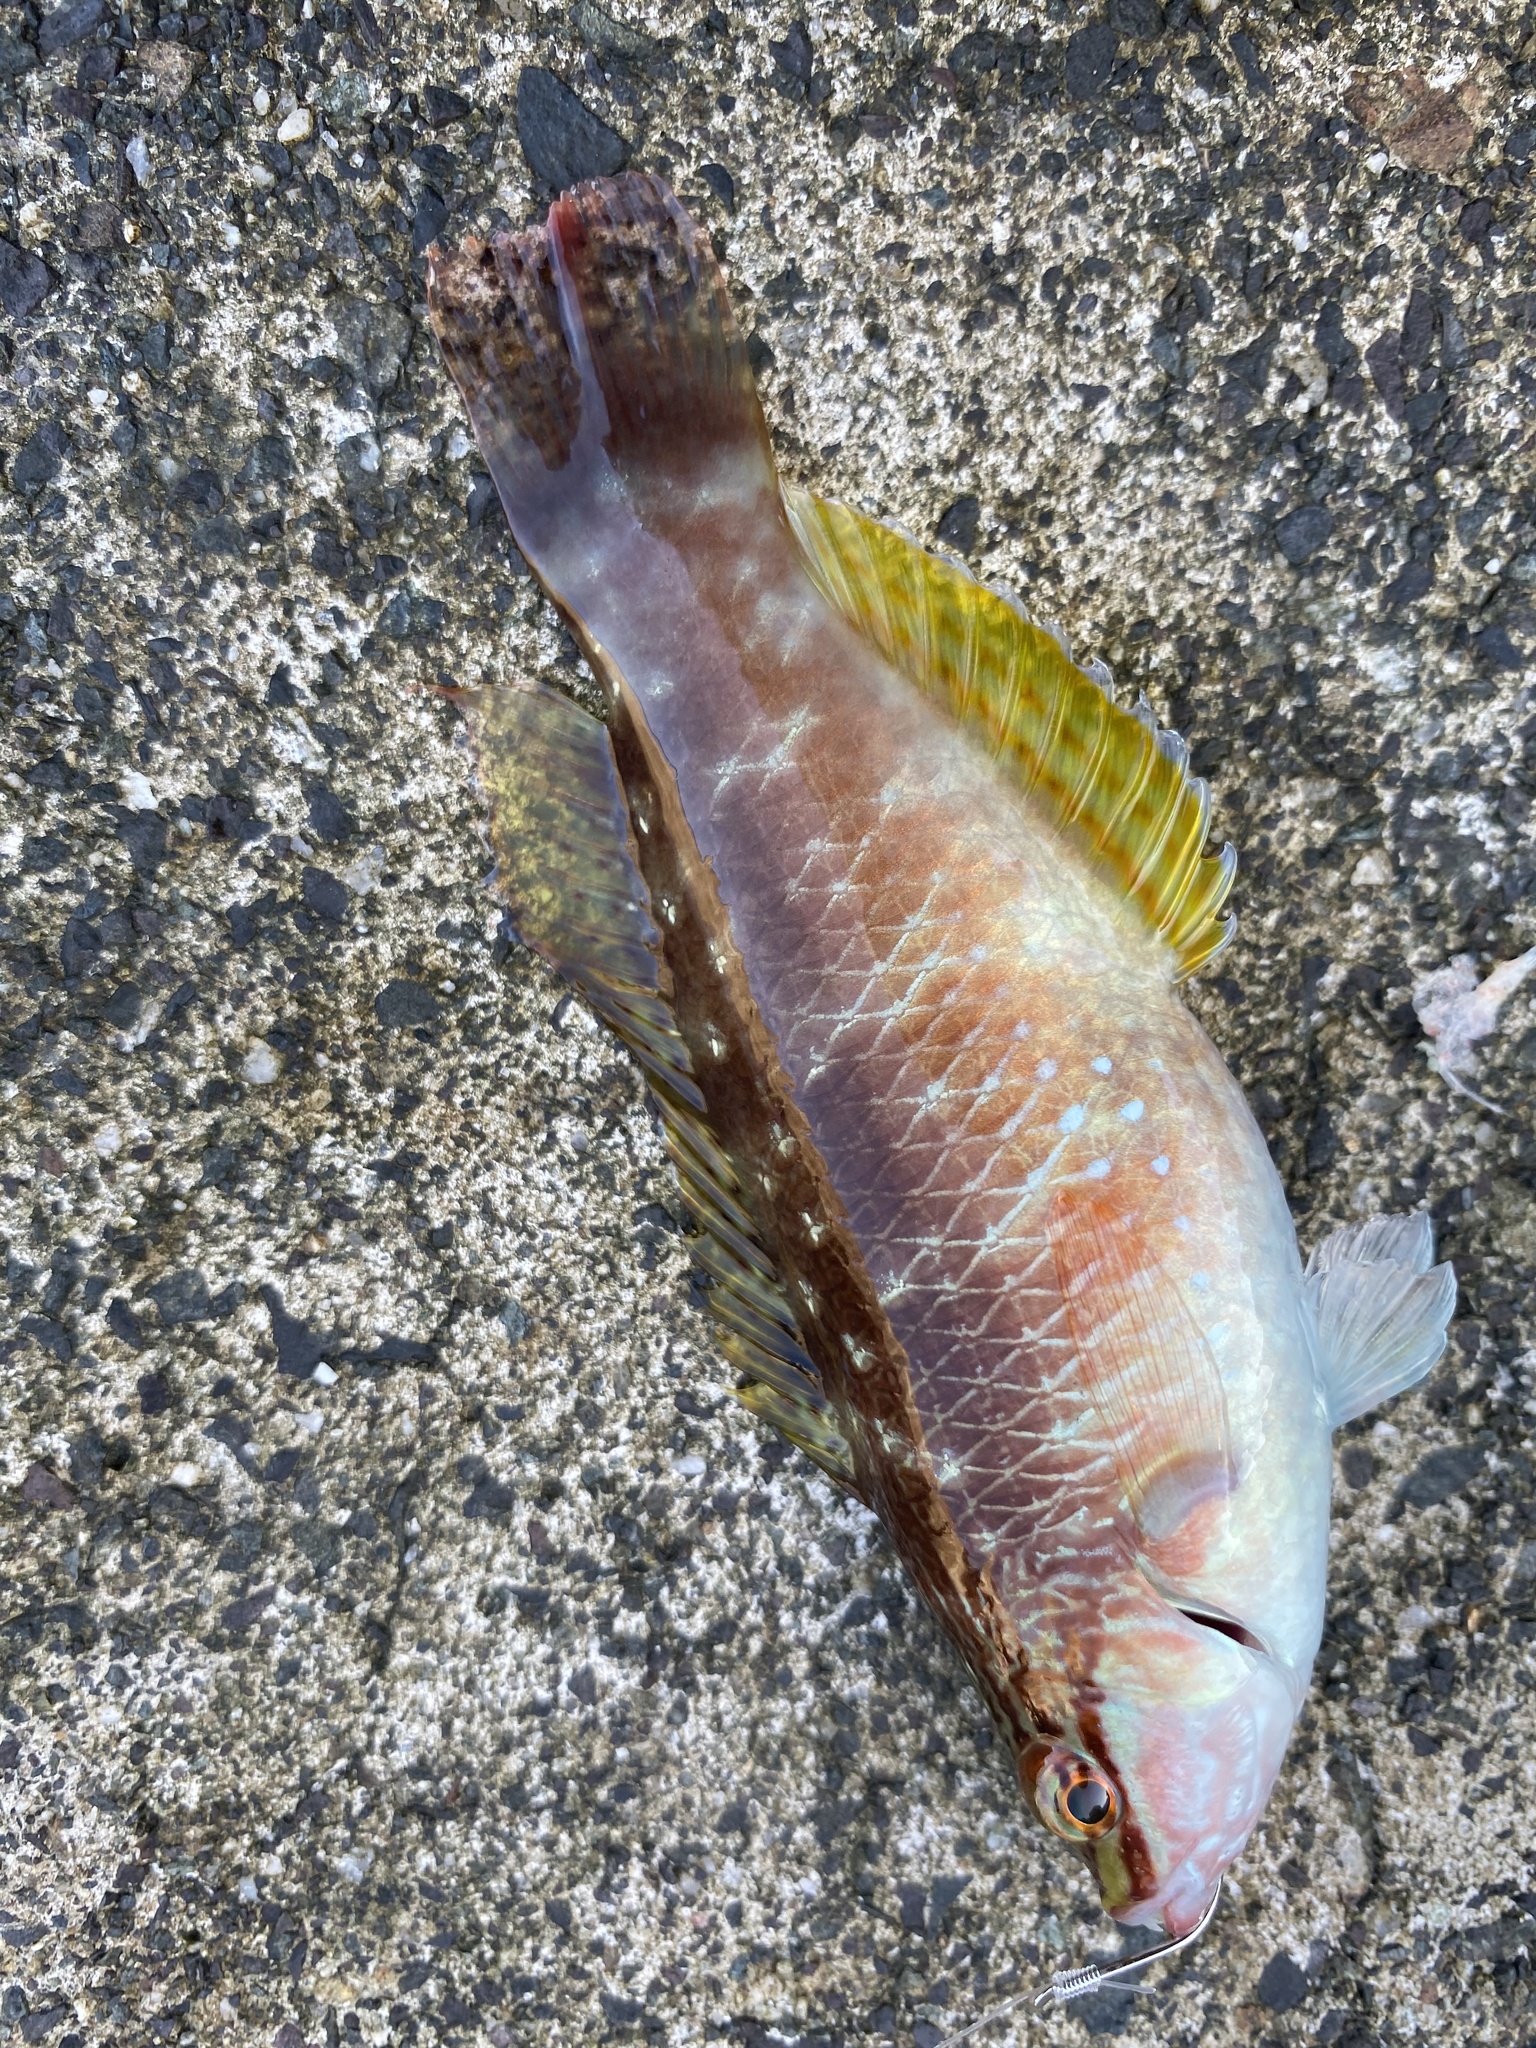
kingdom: Animalia
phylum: Chordata
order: Perciformes
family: Labridae
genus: Pseudolabrus
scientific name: Pseudolabrus sieboldi
